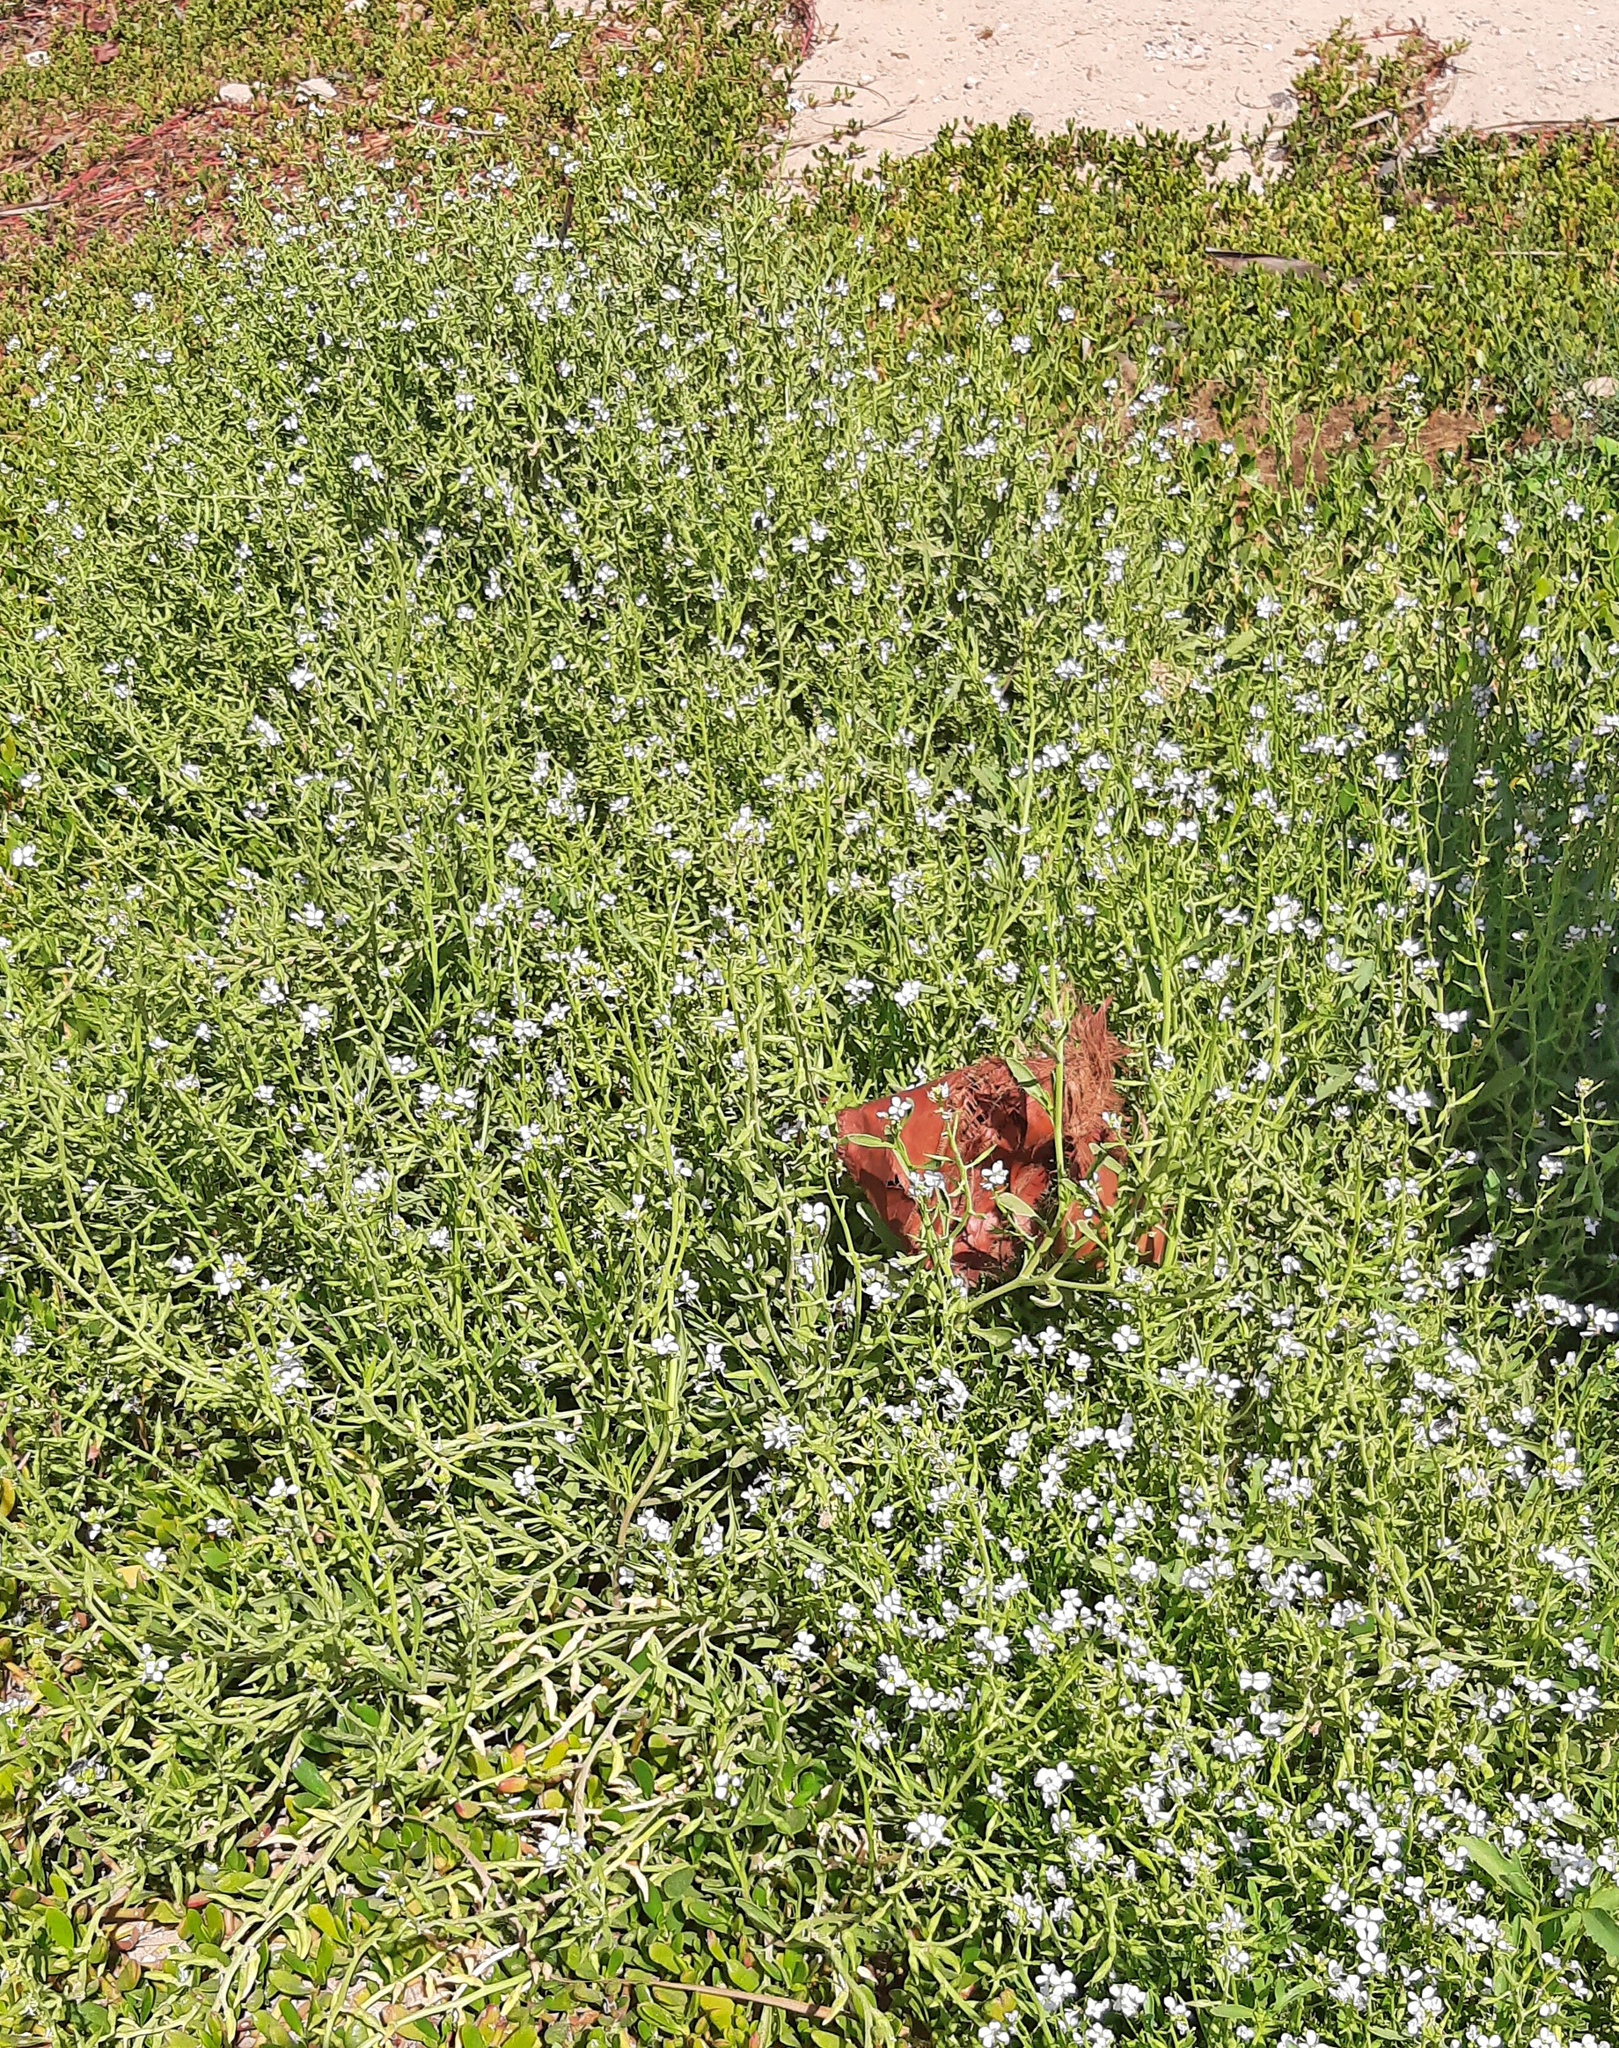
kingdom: Plantae
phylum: Tracheophyta
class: Magnoliopsida
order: Brassicales
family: Brassicaceae
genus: Cakile
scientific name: Cakile maritima
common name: Sea rocket
